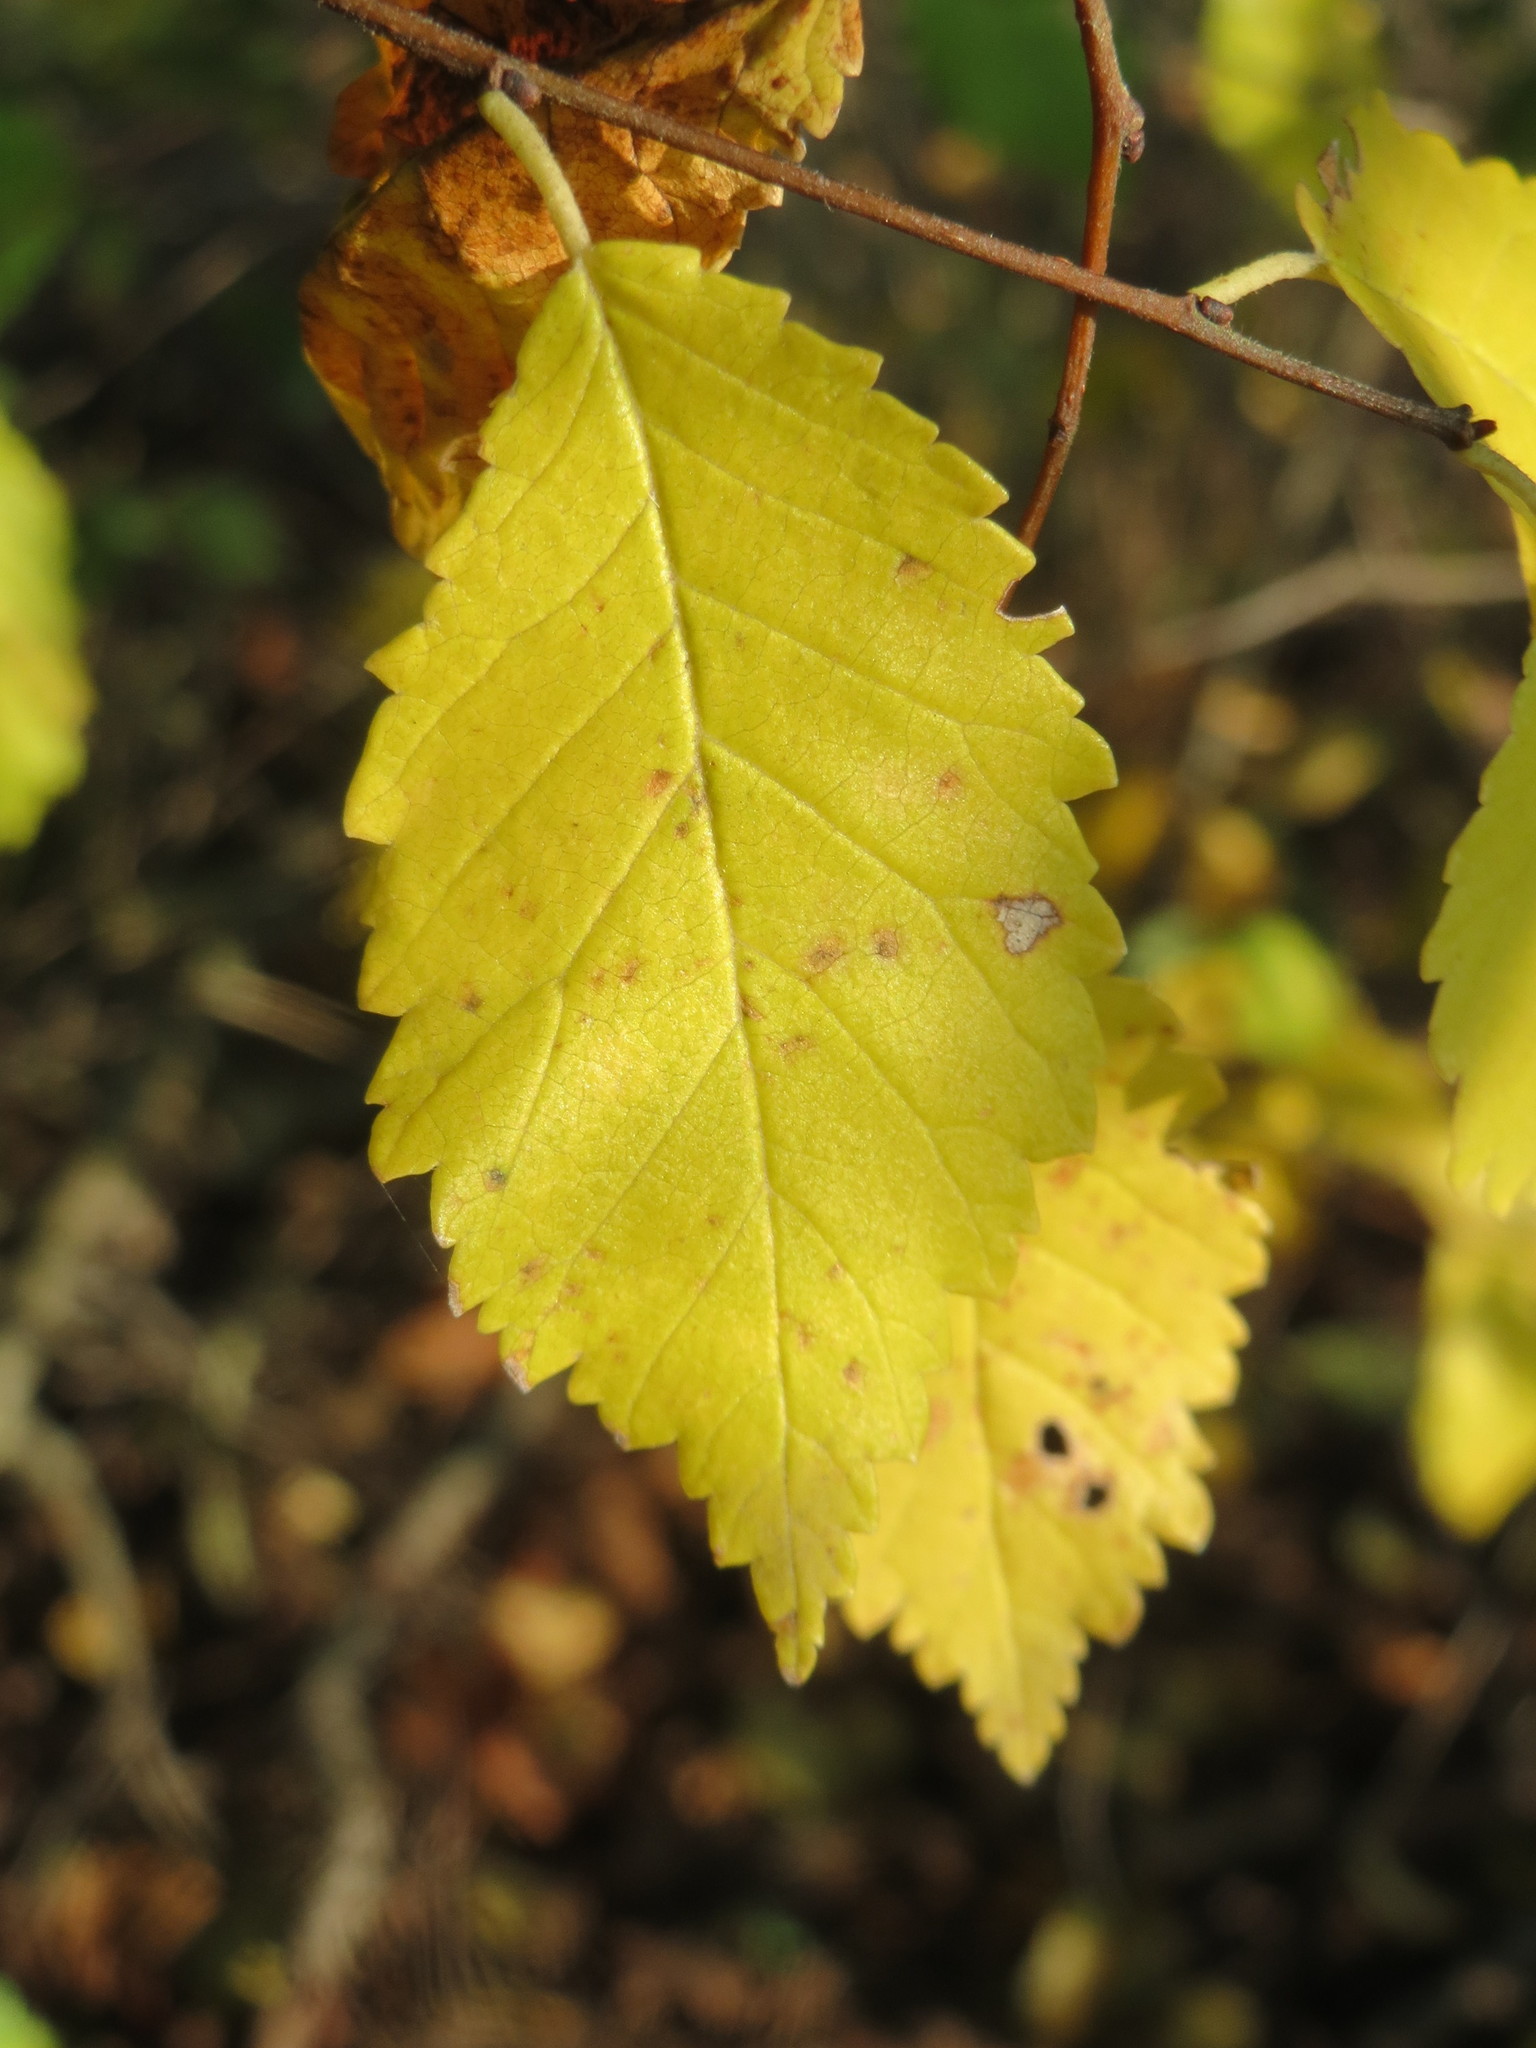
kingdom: Plantae
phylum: Tracheophyta
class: Magnoliopsida
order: Rosales
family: Ulmaceae
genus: Ulmus
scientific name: Ulmus minor
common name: Small-leaved elm
